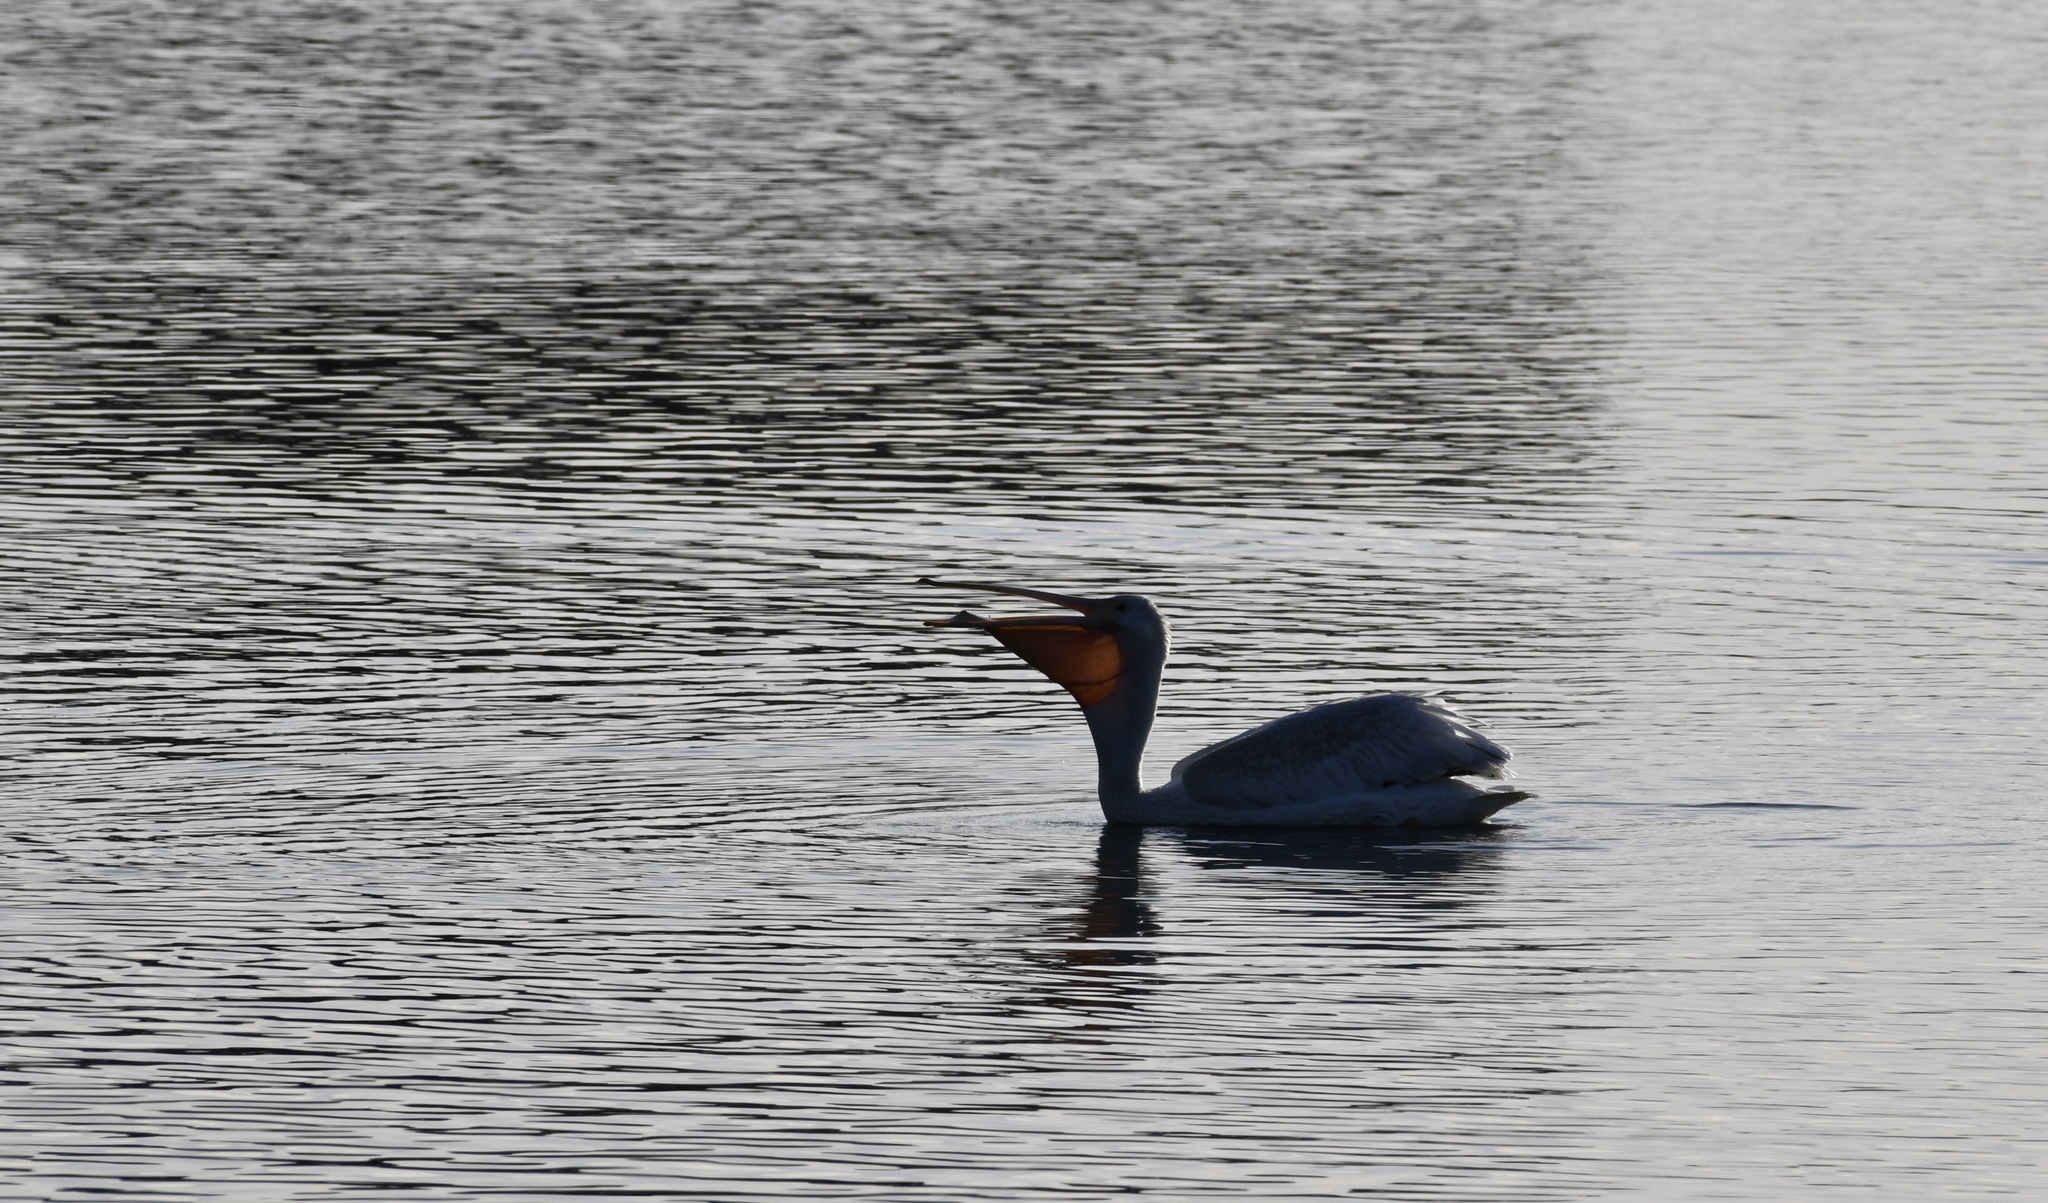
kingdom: Animalia
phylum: Chordata
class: Aves
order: Pelecaniformes
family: Pelecanidae
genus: Pelecanus
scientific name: Pelecanus erythrorhynchos
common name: American white pelican
